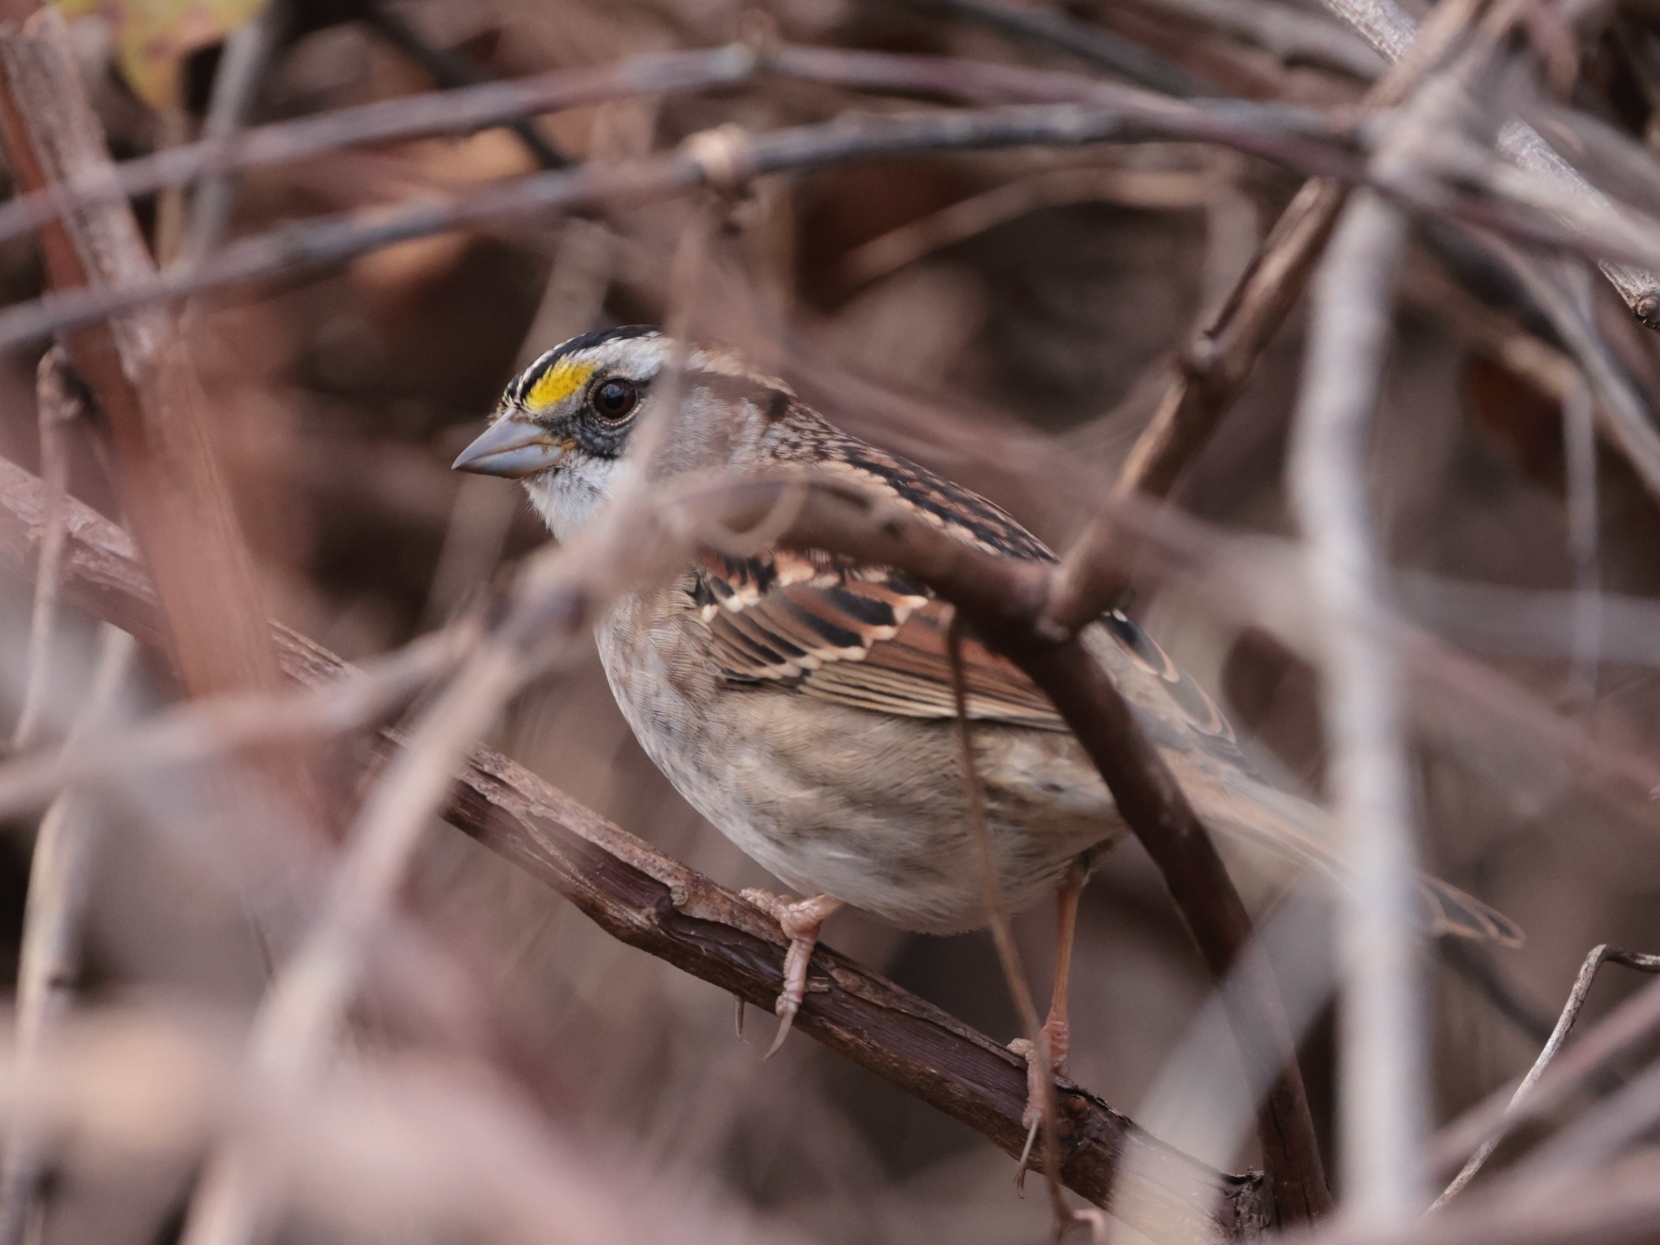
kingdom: Animalia
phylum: Chordata
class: Aves
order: Passeriformes
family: Passerellidae
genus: Zonotrichia
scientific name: Zonotrichia albicollis
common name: White-throated sparrow
